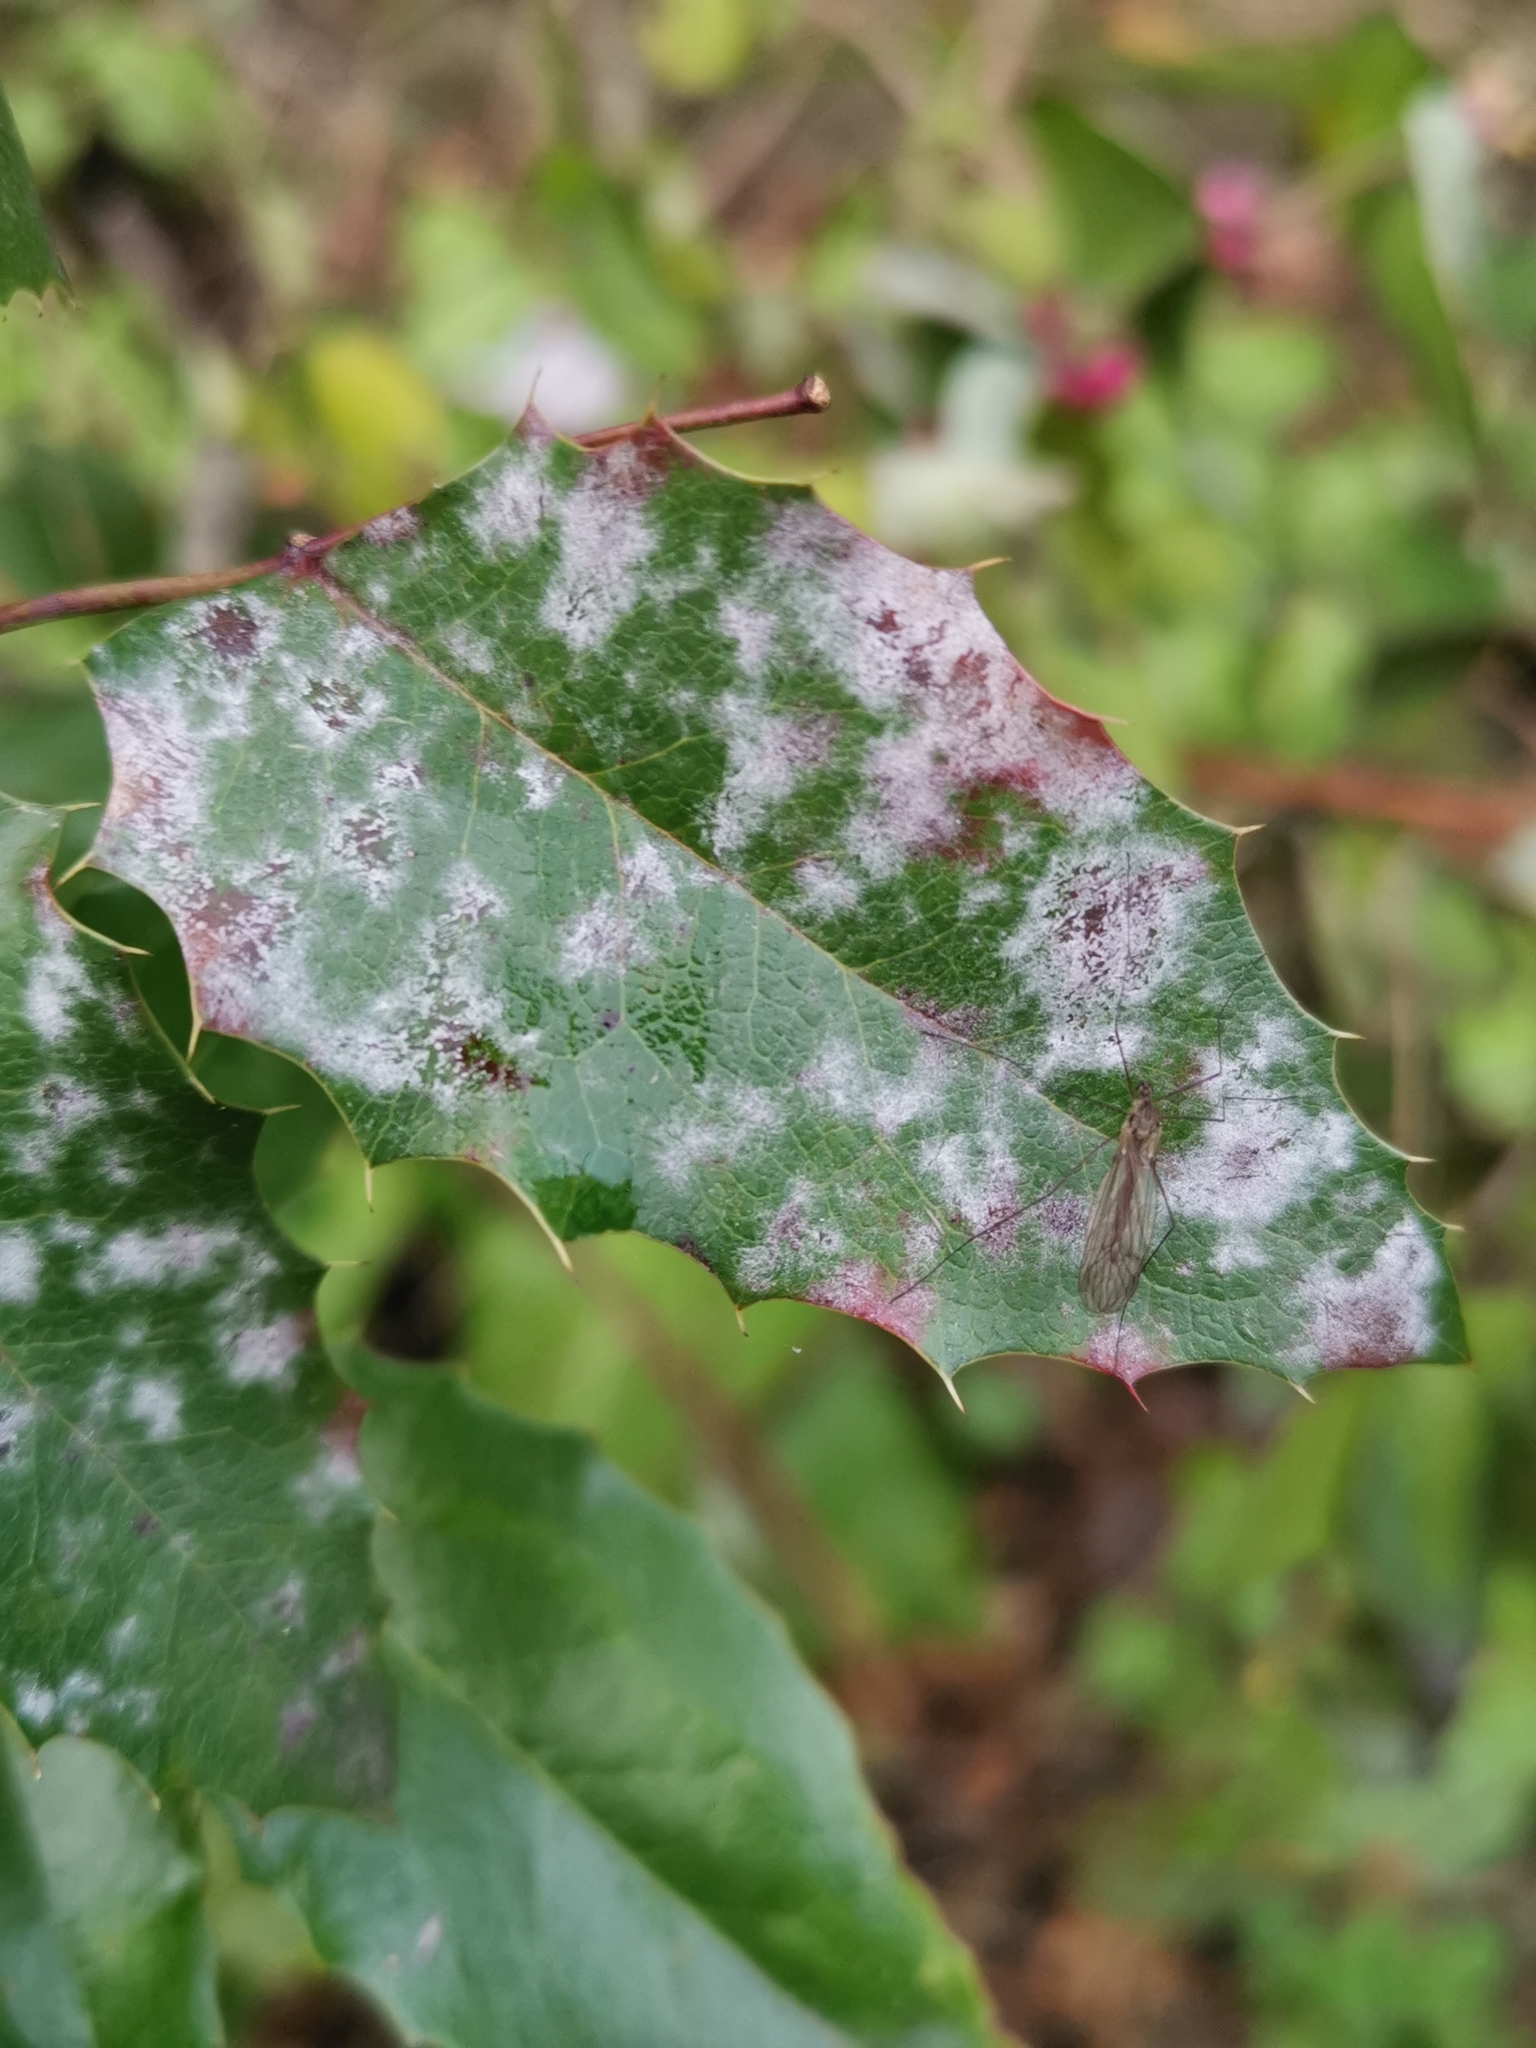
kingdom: Fungi
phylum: Ascomycota
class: Leotiomycetes
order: Helotiales
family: Erysiphaceae
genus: Erysiphe
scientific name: Erysiphe berberidis
